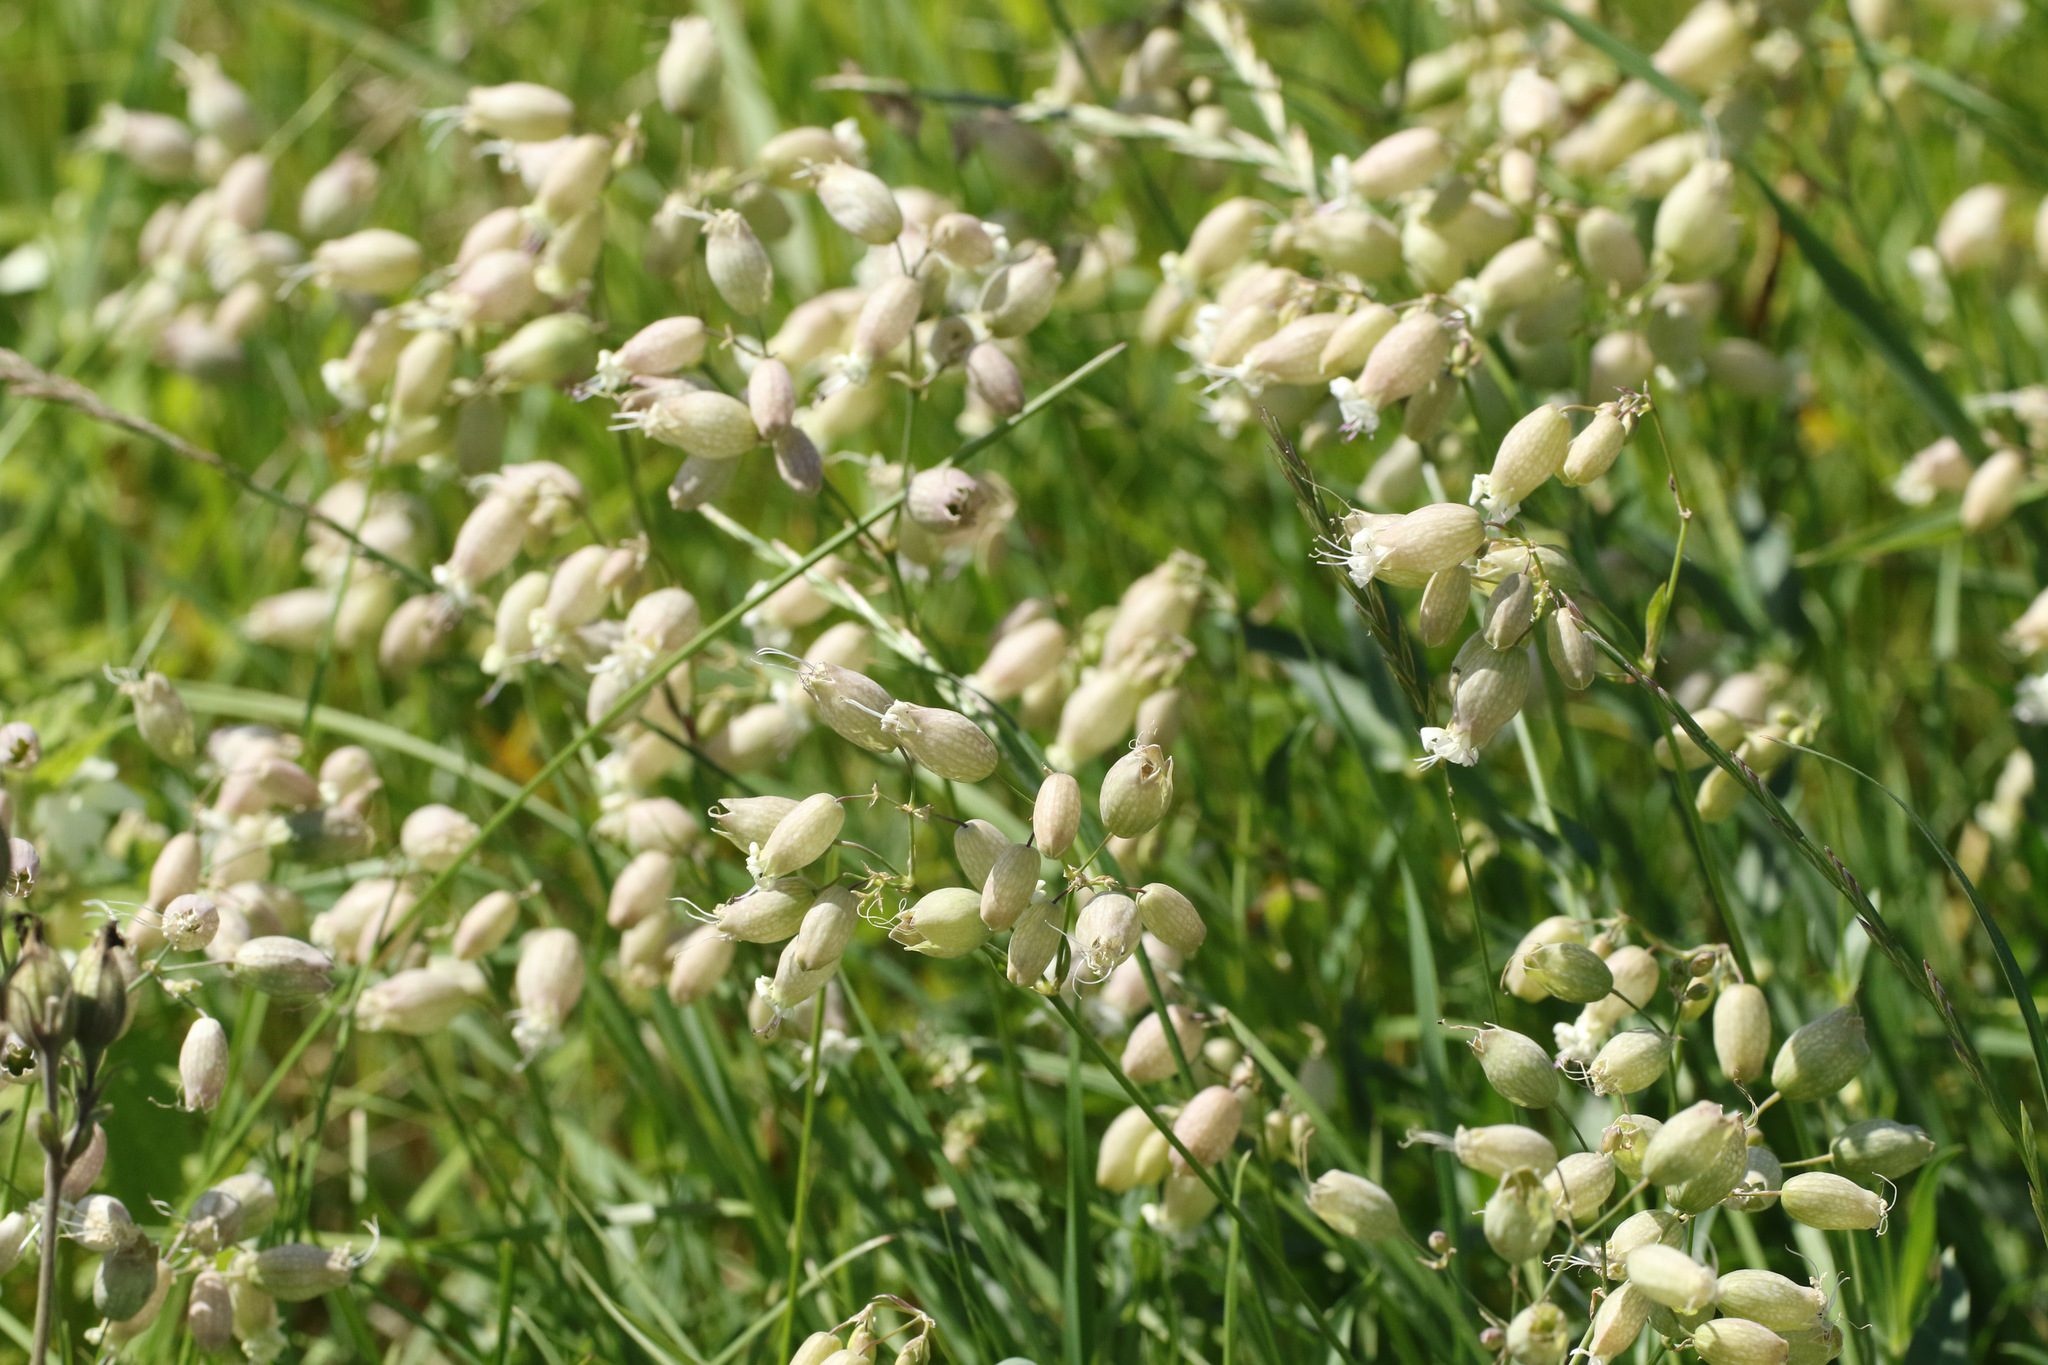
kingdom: Plantae
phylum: Tracheophyta
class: Magnoliopsida
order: Caryophyllales
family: Caryophyllaceae
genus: Silene
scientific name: Silene vulgaris
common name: Bladder campion
